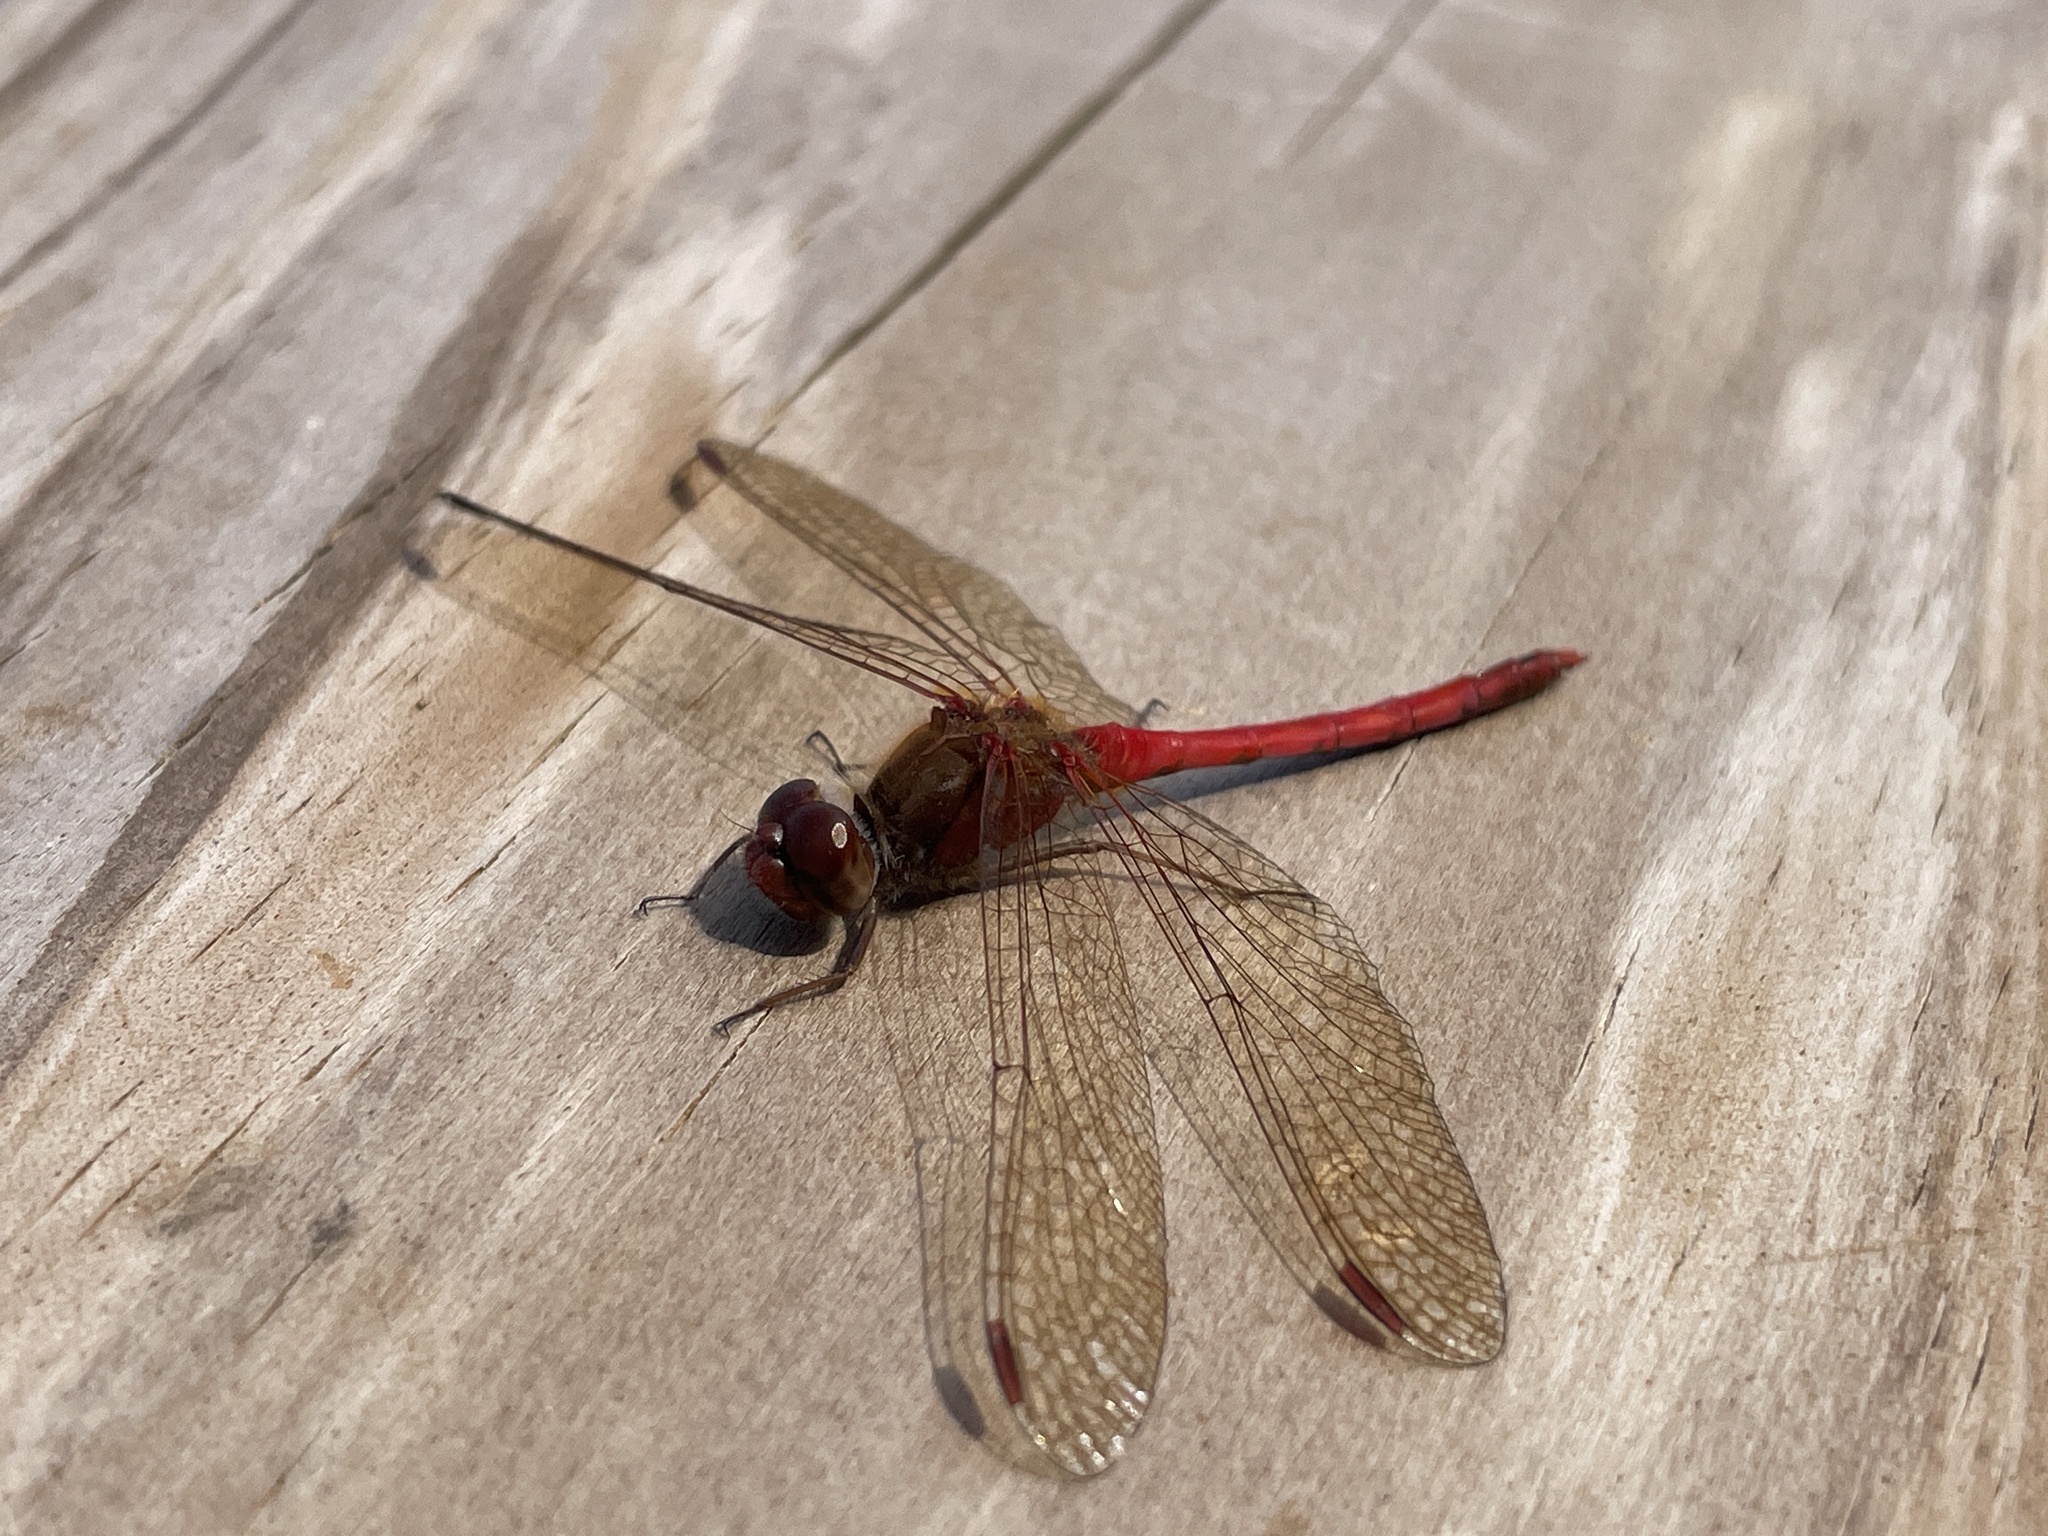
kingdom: Animalia
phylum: Arthropoda
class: Insecta
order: Odonata
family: Libellulidae
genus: Sympetrum
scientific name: Sympetrum vicinum
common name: Autumn meadowhawk
